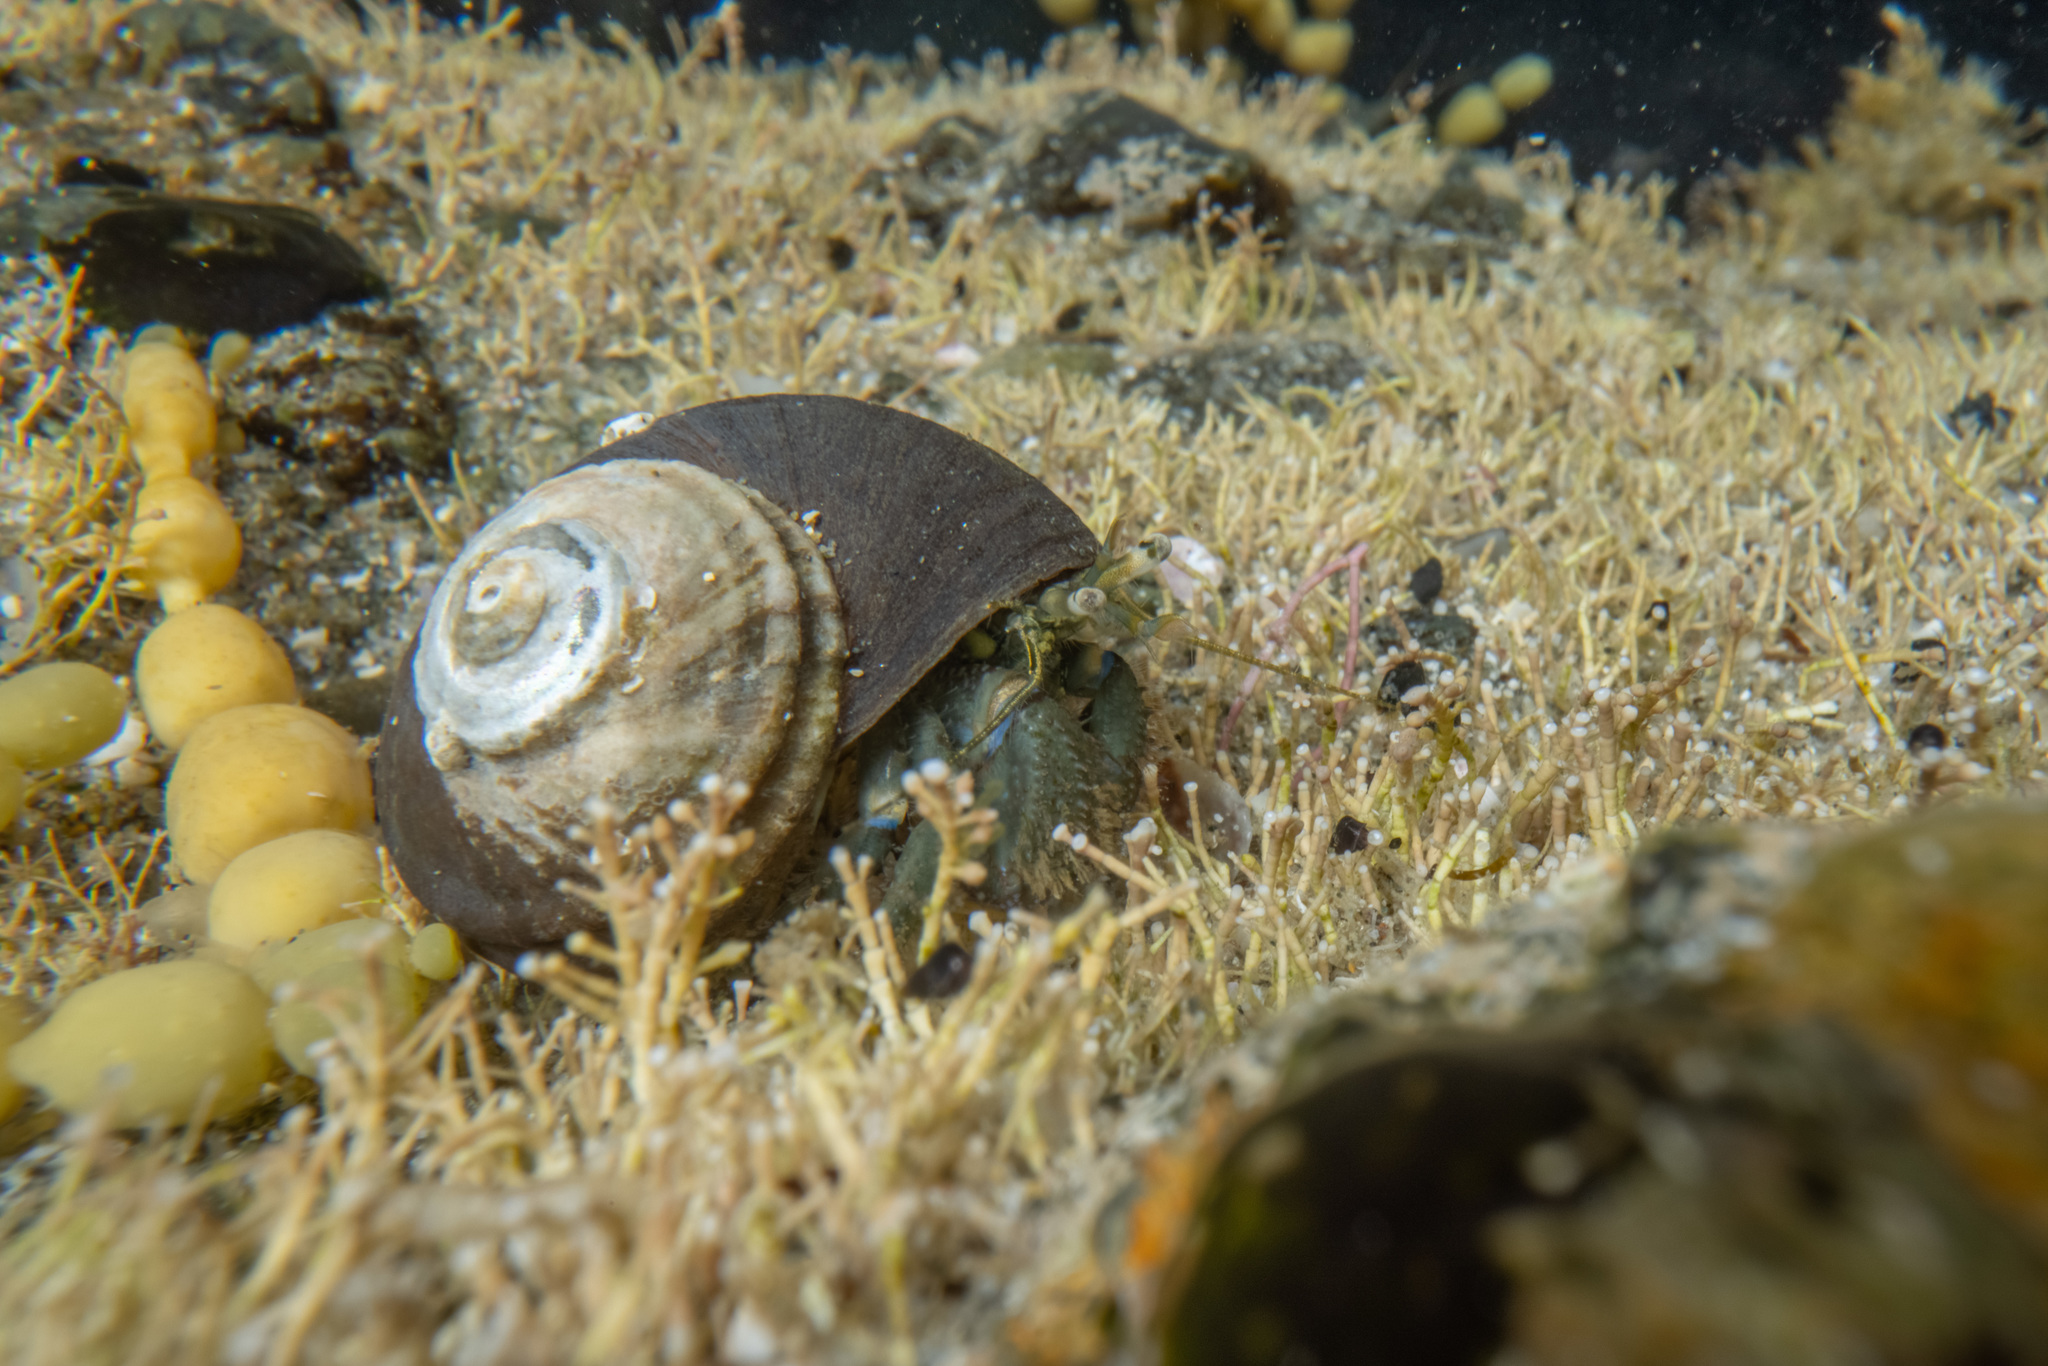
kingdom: Animalia
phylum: Arthropoda
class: Malacostraca
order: Decapoda
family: Paguridae
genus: Pagurus
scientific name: Pagurus novizealandiae
